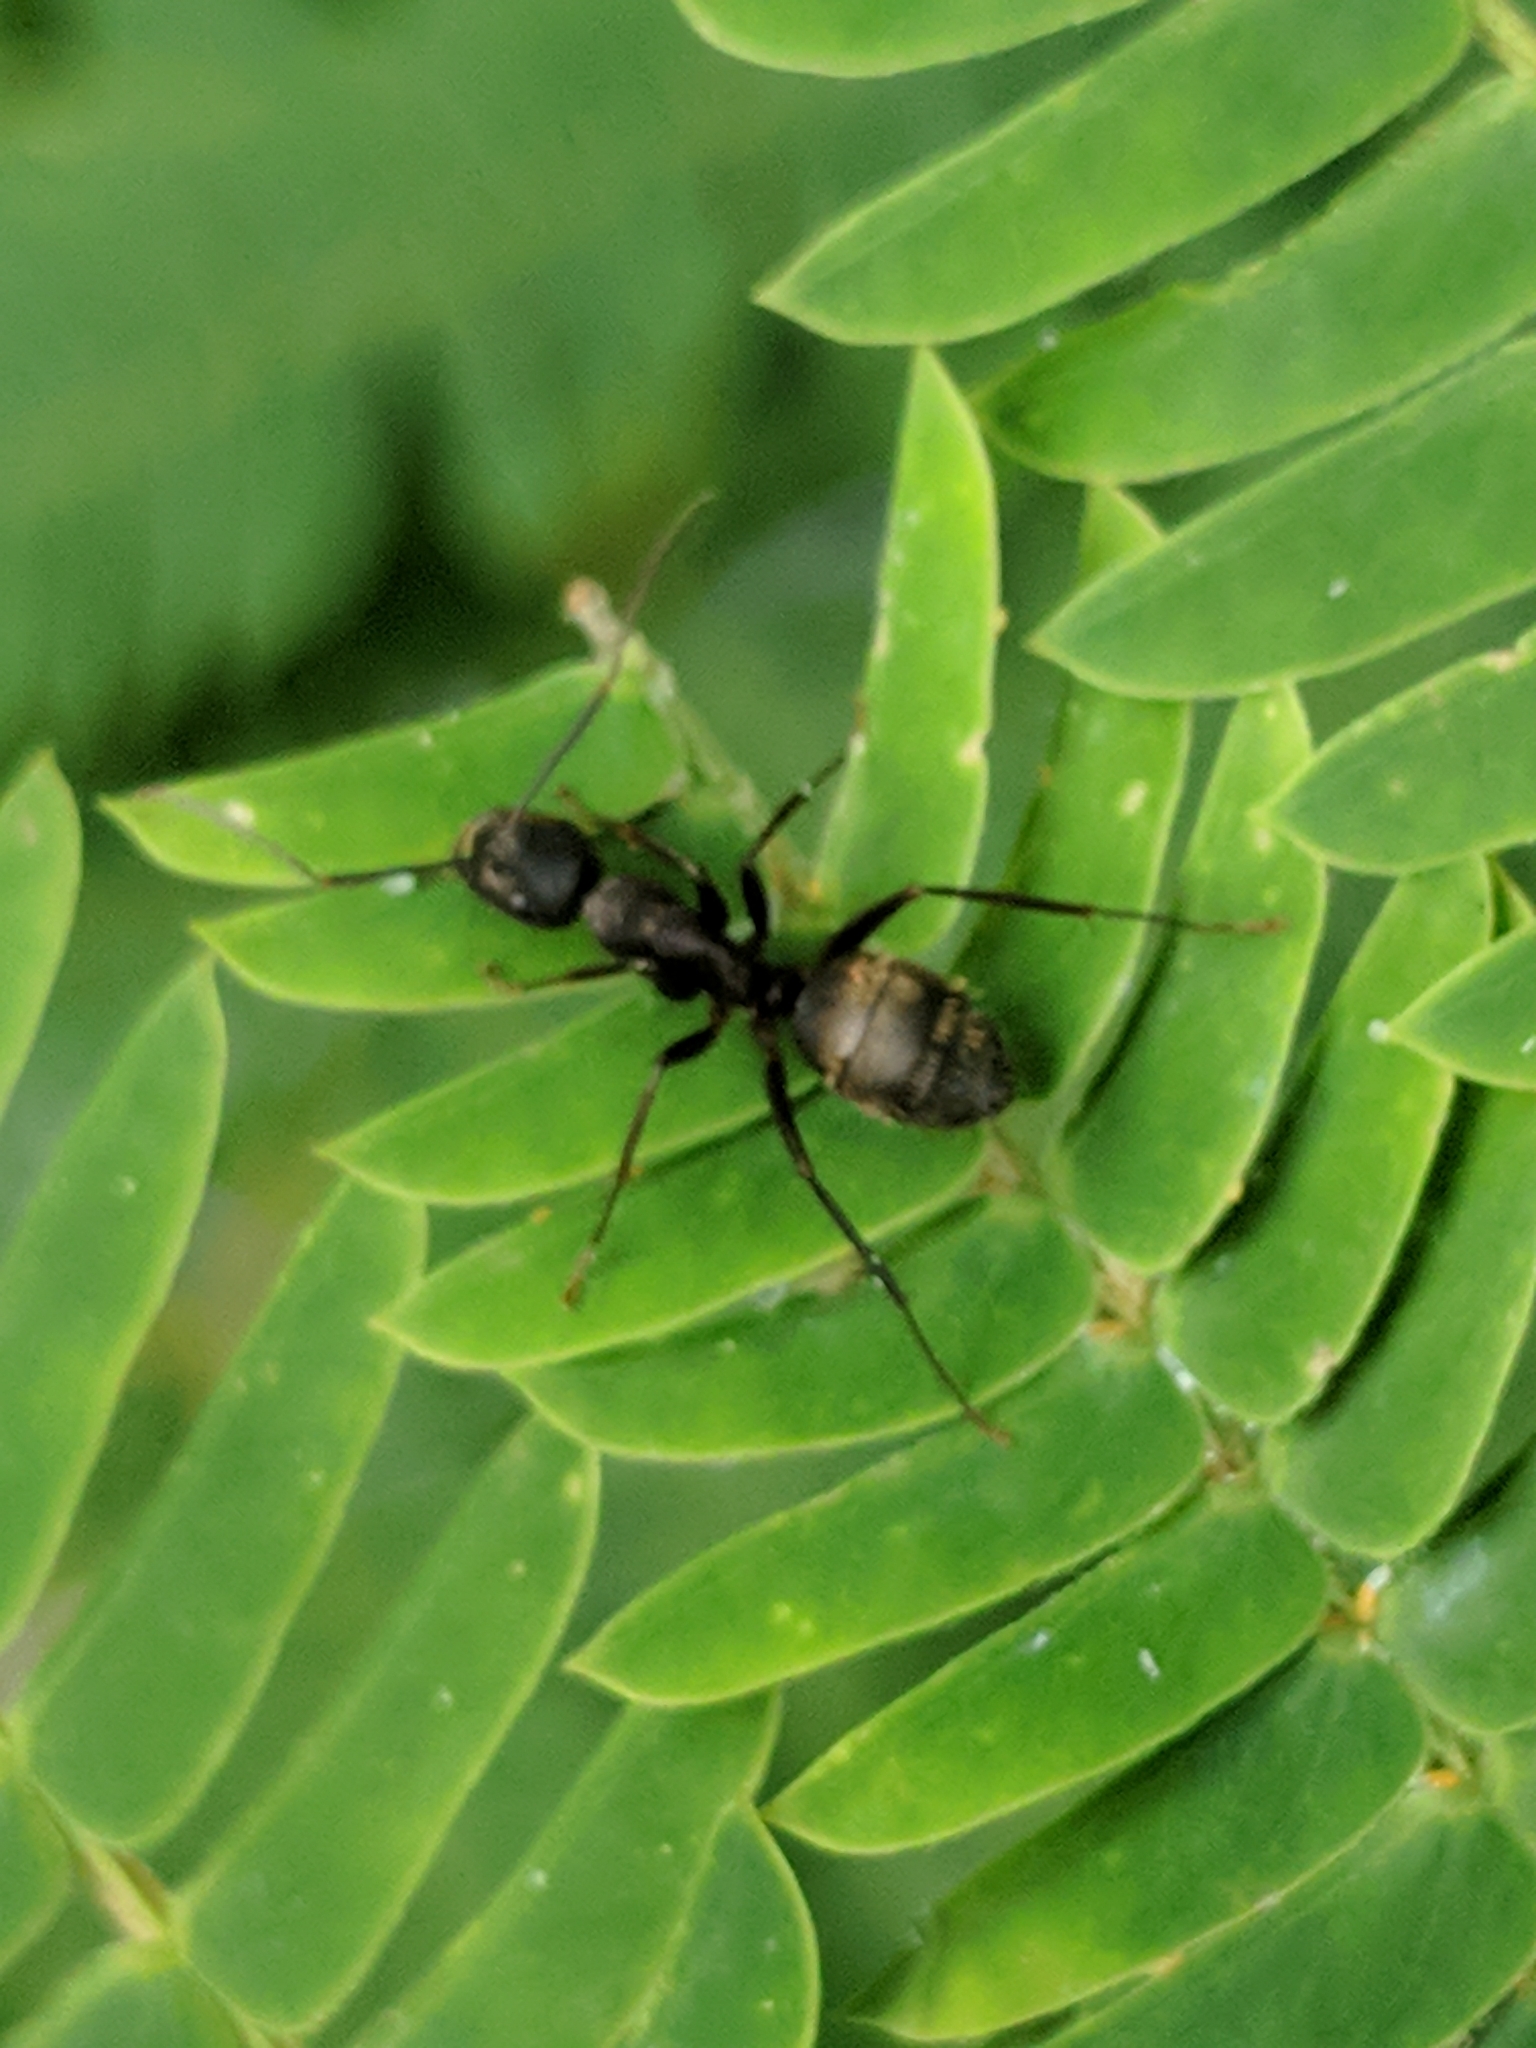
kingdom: Animalia
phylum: Arthropoda
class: Insecta
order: Hymenoptera
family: Formicidae
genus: Camponotus
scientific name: Camponotus pennsylvanicus
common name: Black carpenter ant
